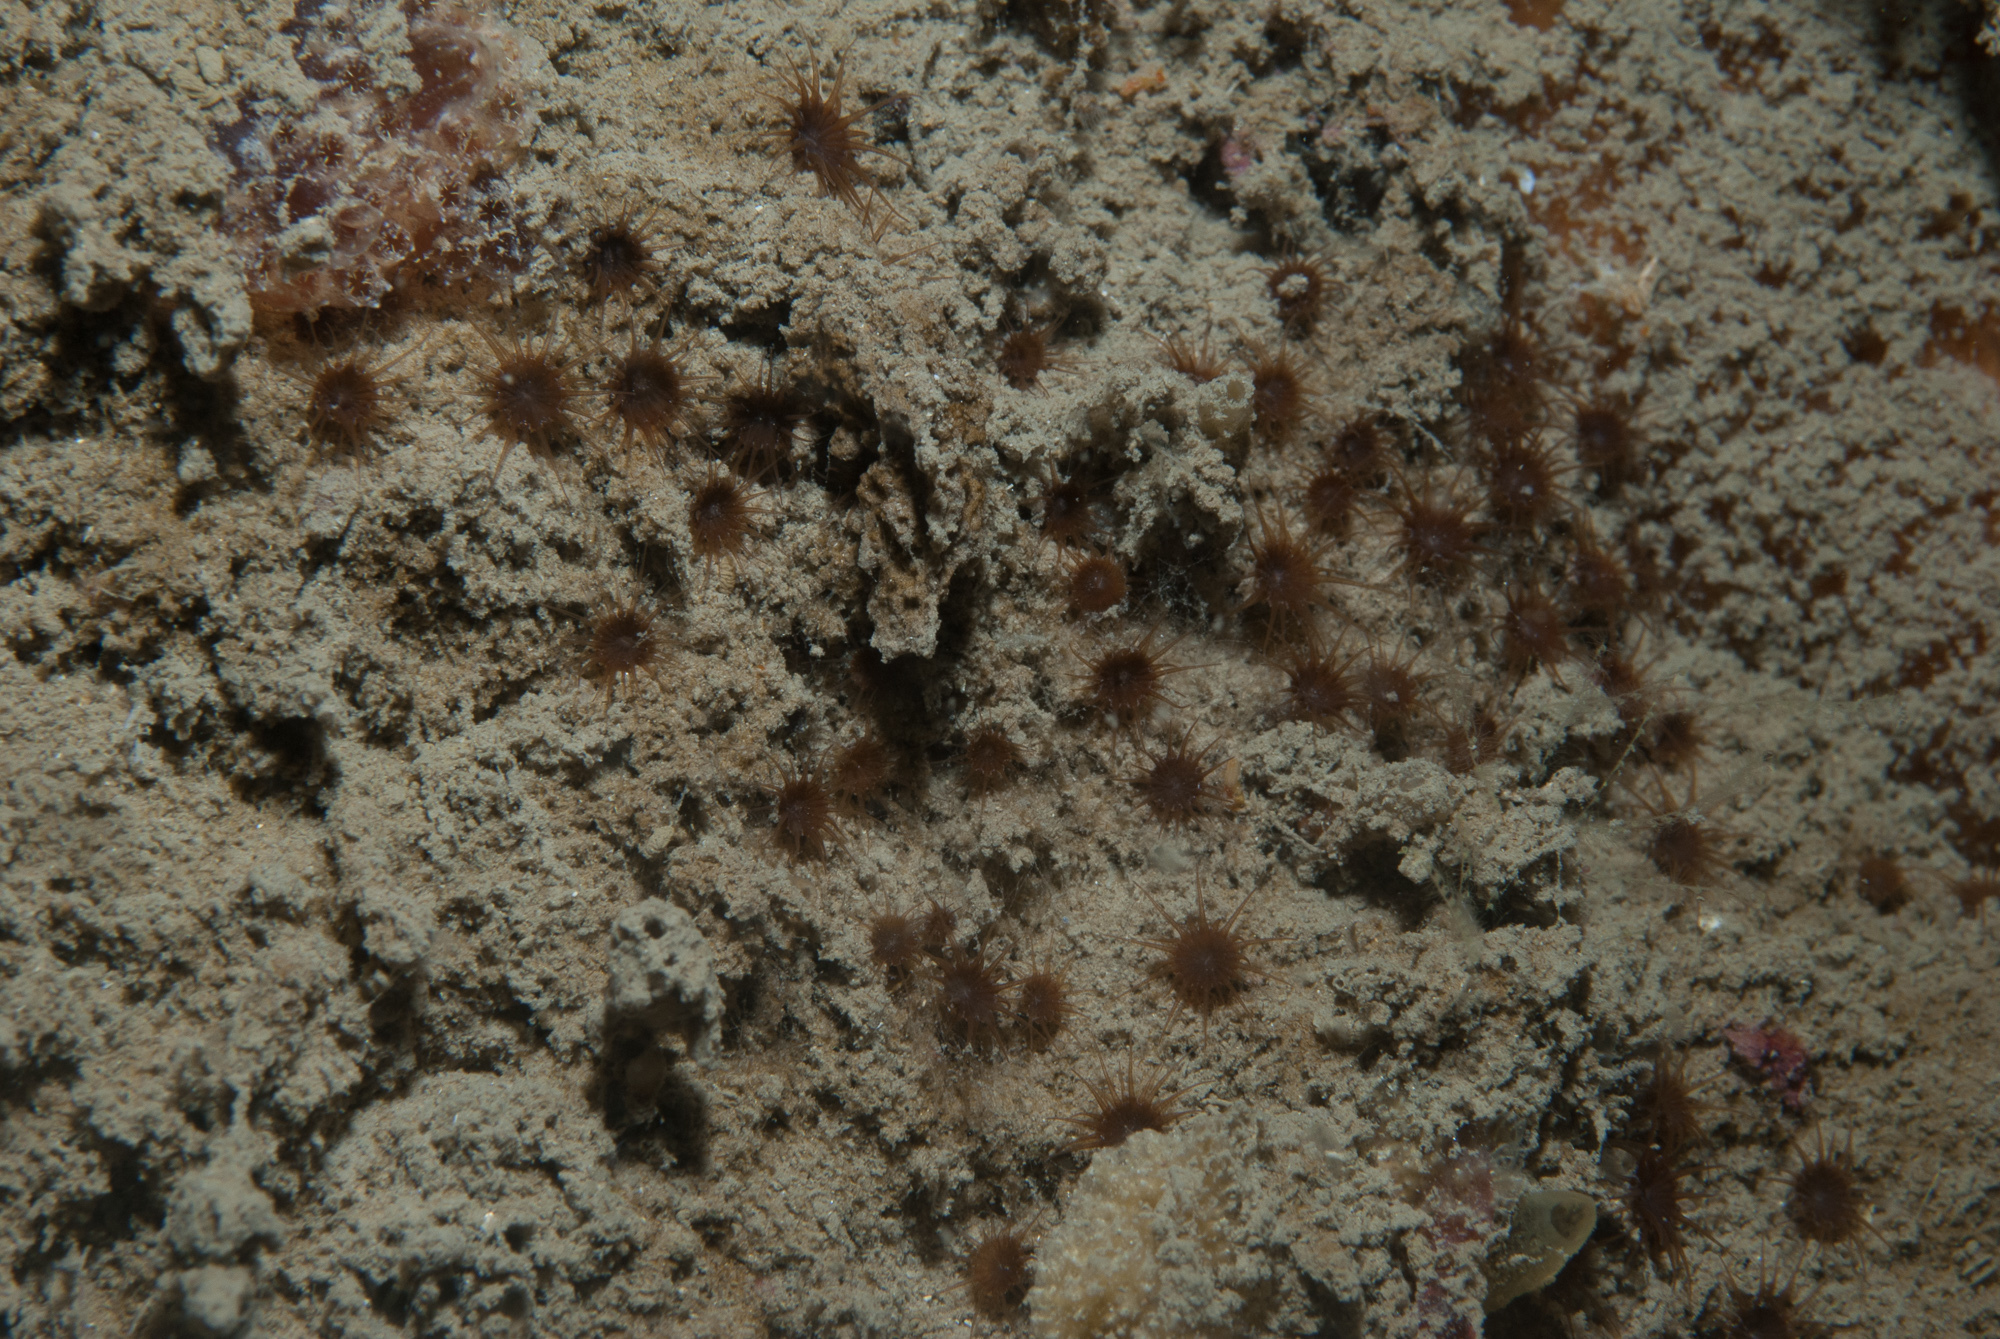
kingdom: Animalia
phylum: Cnidaria
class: Anthozoa
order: Zoantharia
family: Parazoanthidae
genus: Isozoanthus
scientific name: Isozoanthus sulcatus
